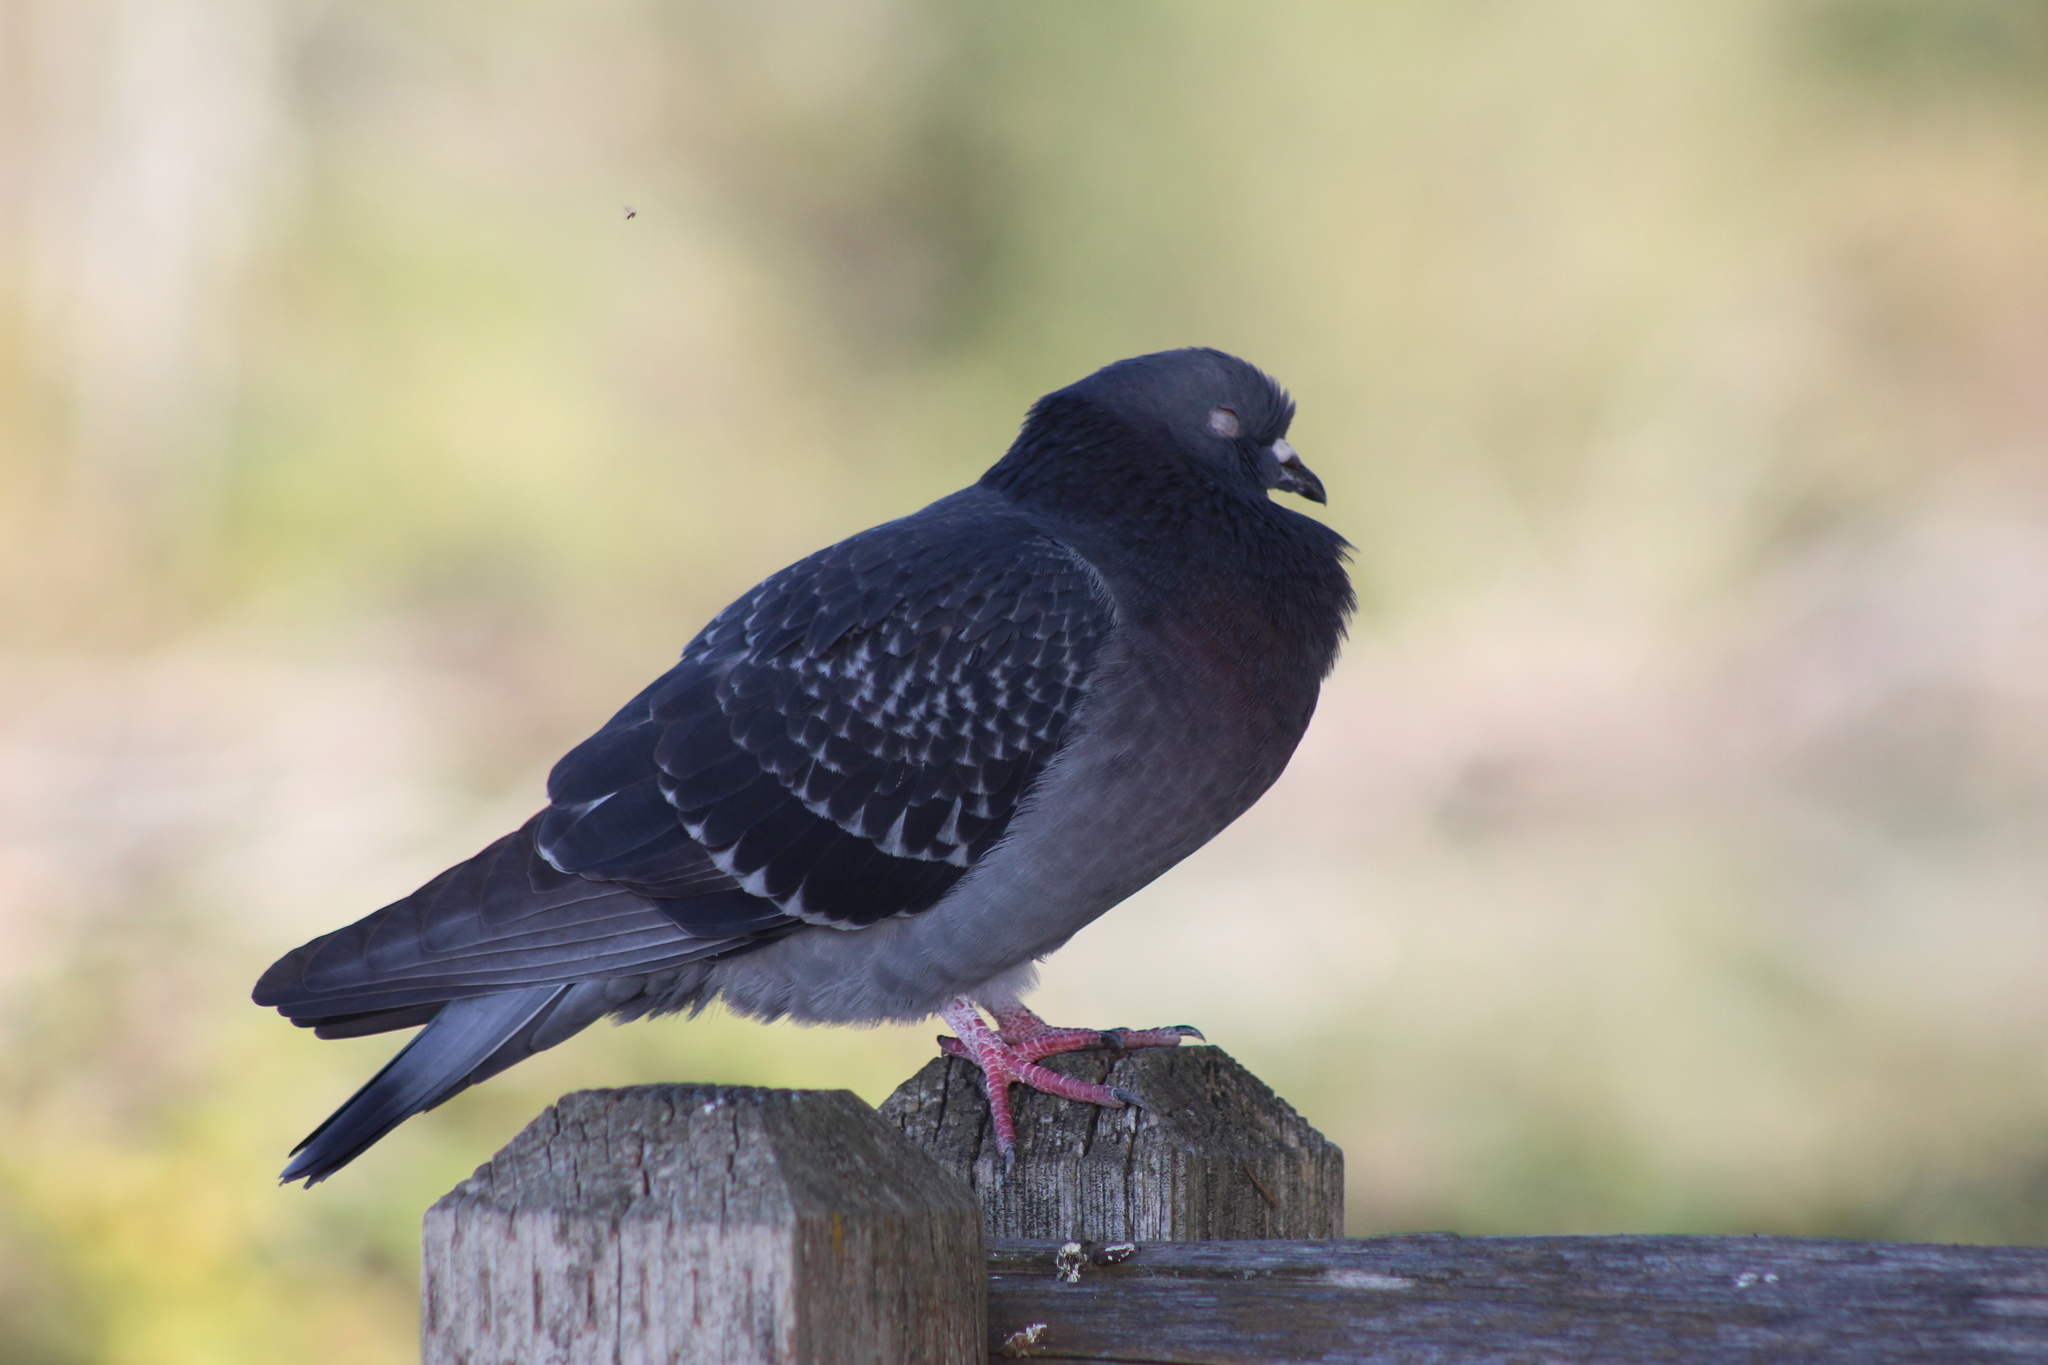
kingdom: Animalia
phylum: Chordata
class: Aves
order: Columbiformes
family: Columbidae
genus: Columba
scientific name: Columba livia
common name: Rock pigeon
